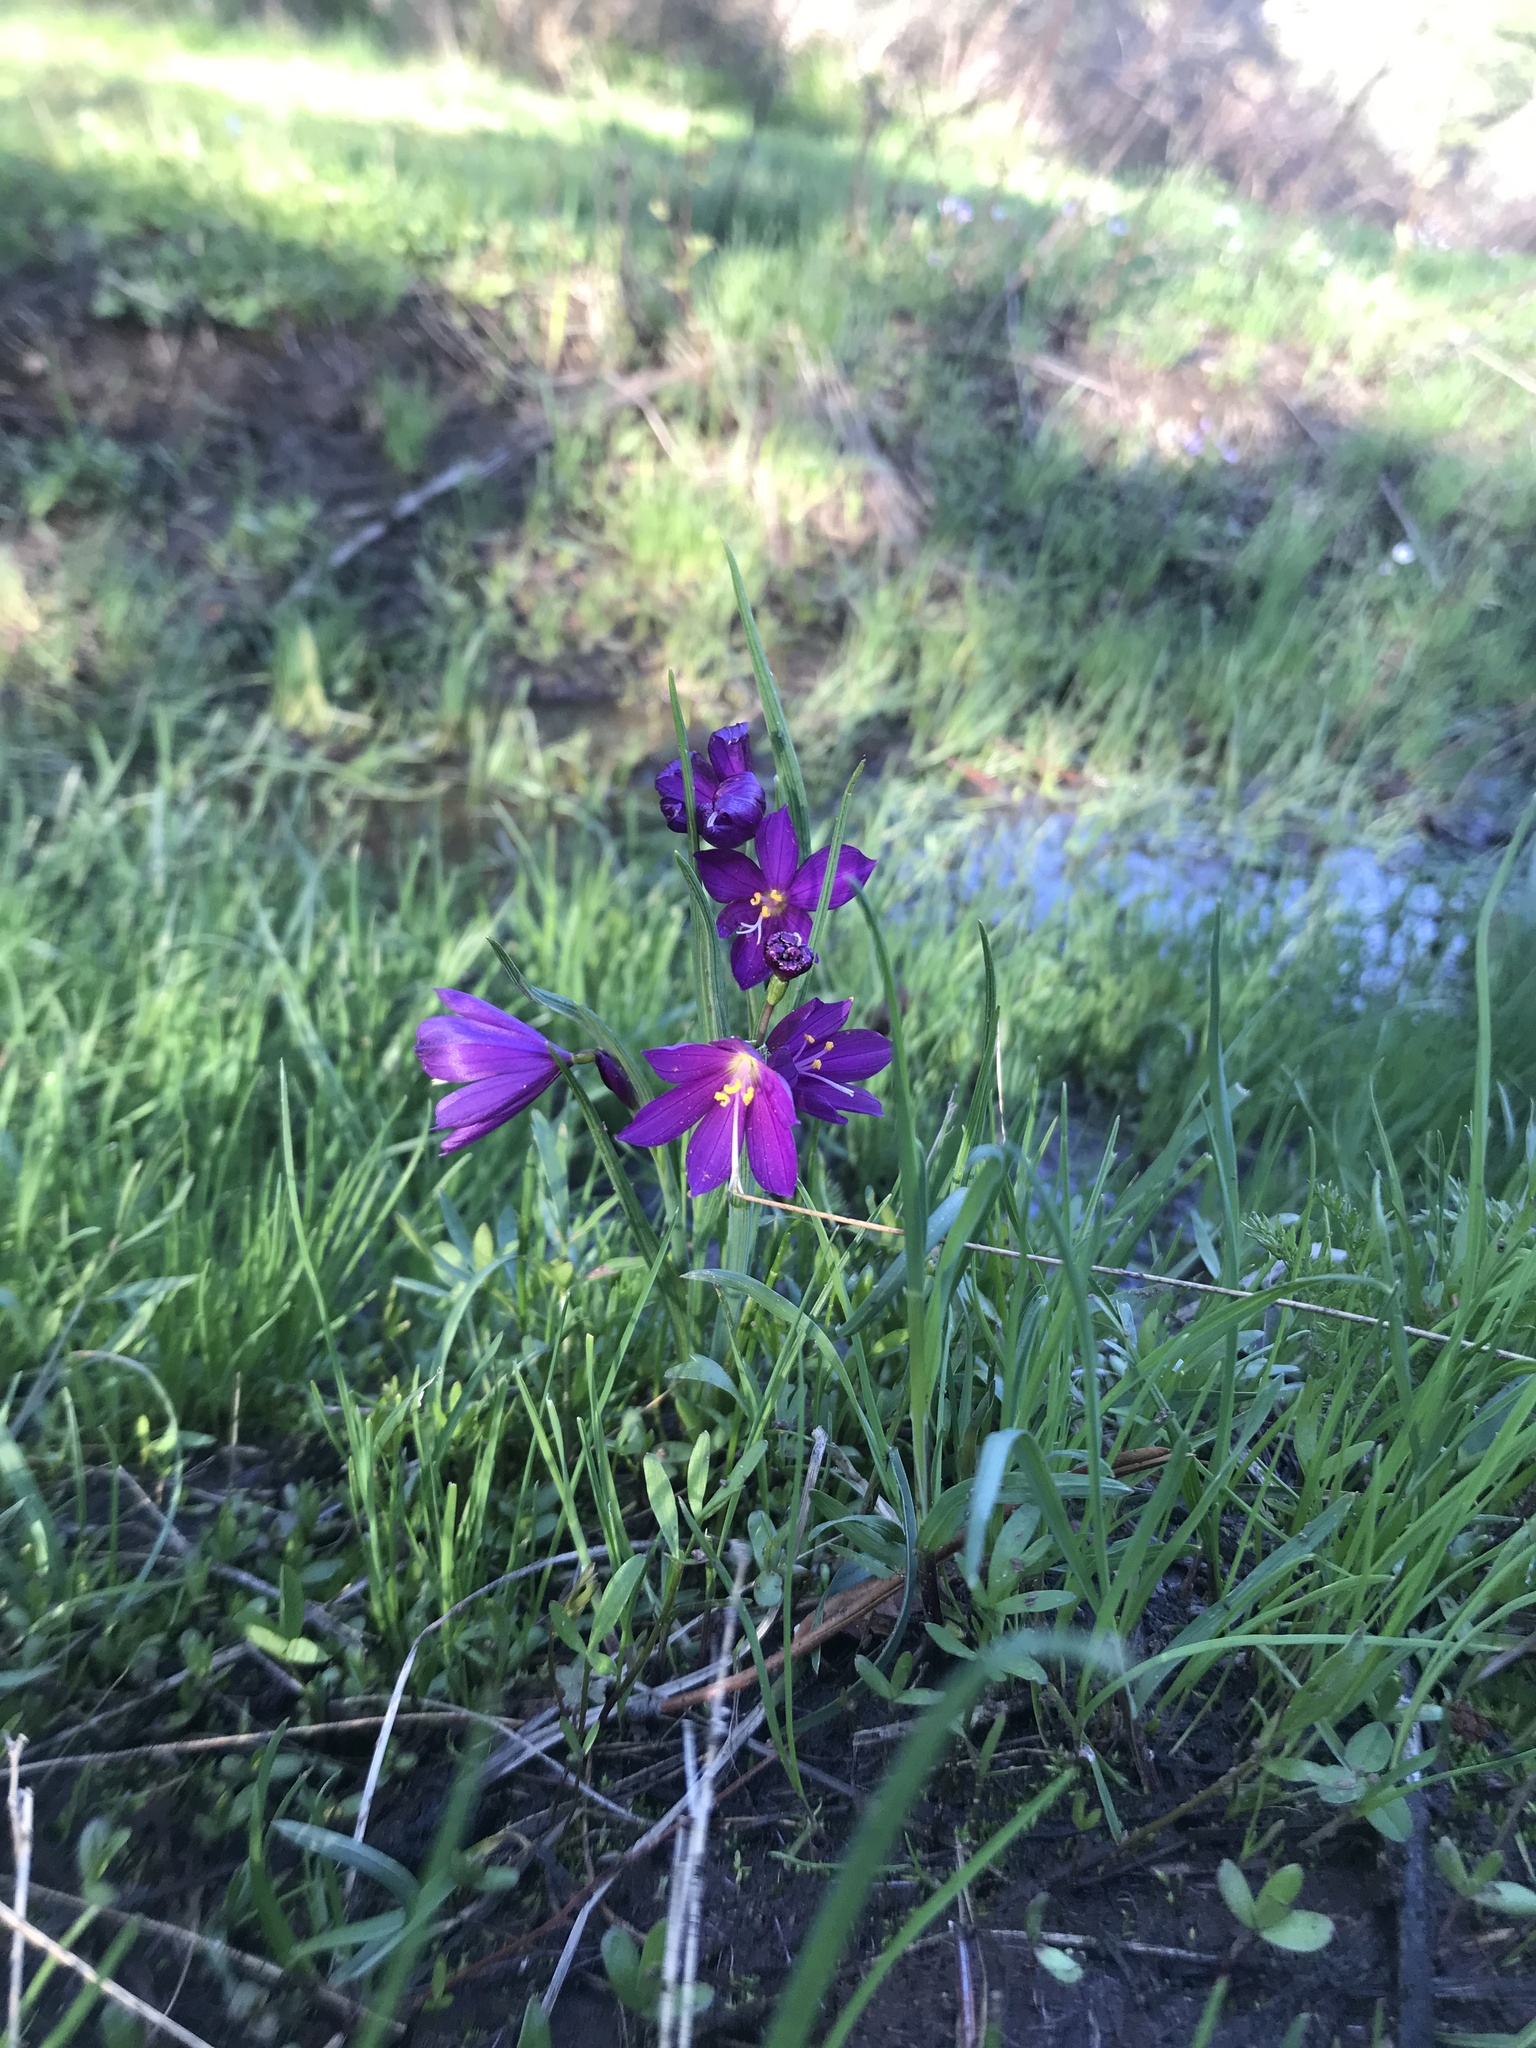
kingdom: Plantae
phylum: Tracheophyta
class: Liliopsida
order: Asparagales
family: Iridaceae
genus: Olsynium
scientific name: Olsynium douglasii
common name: Douglas' grasswidow
